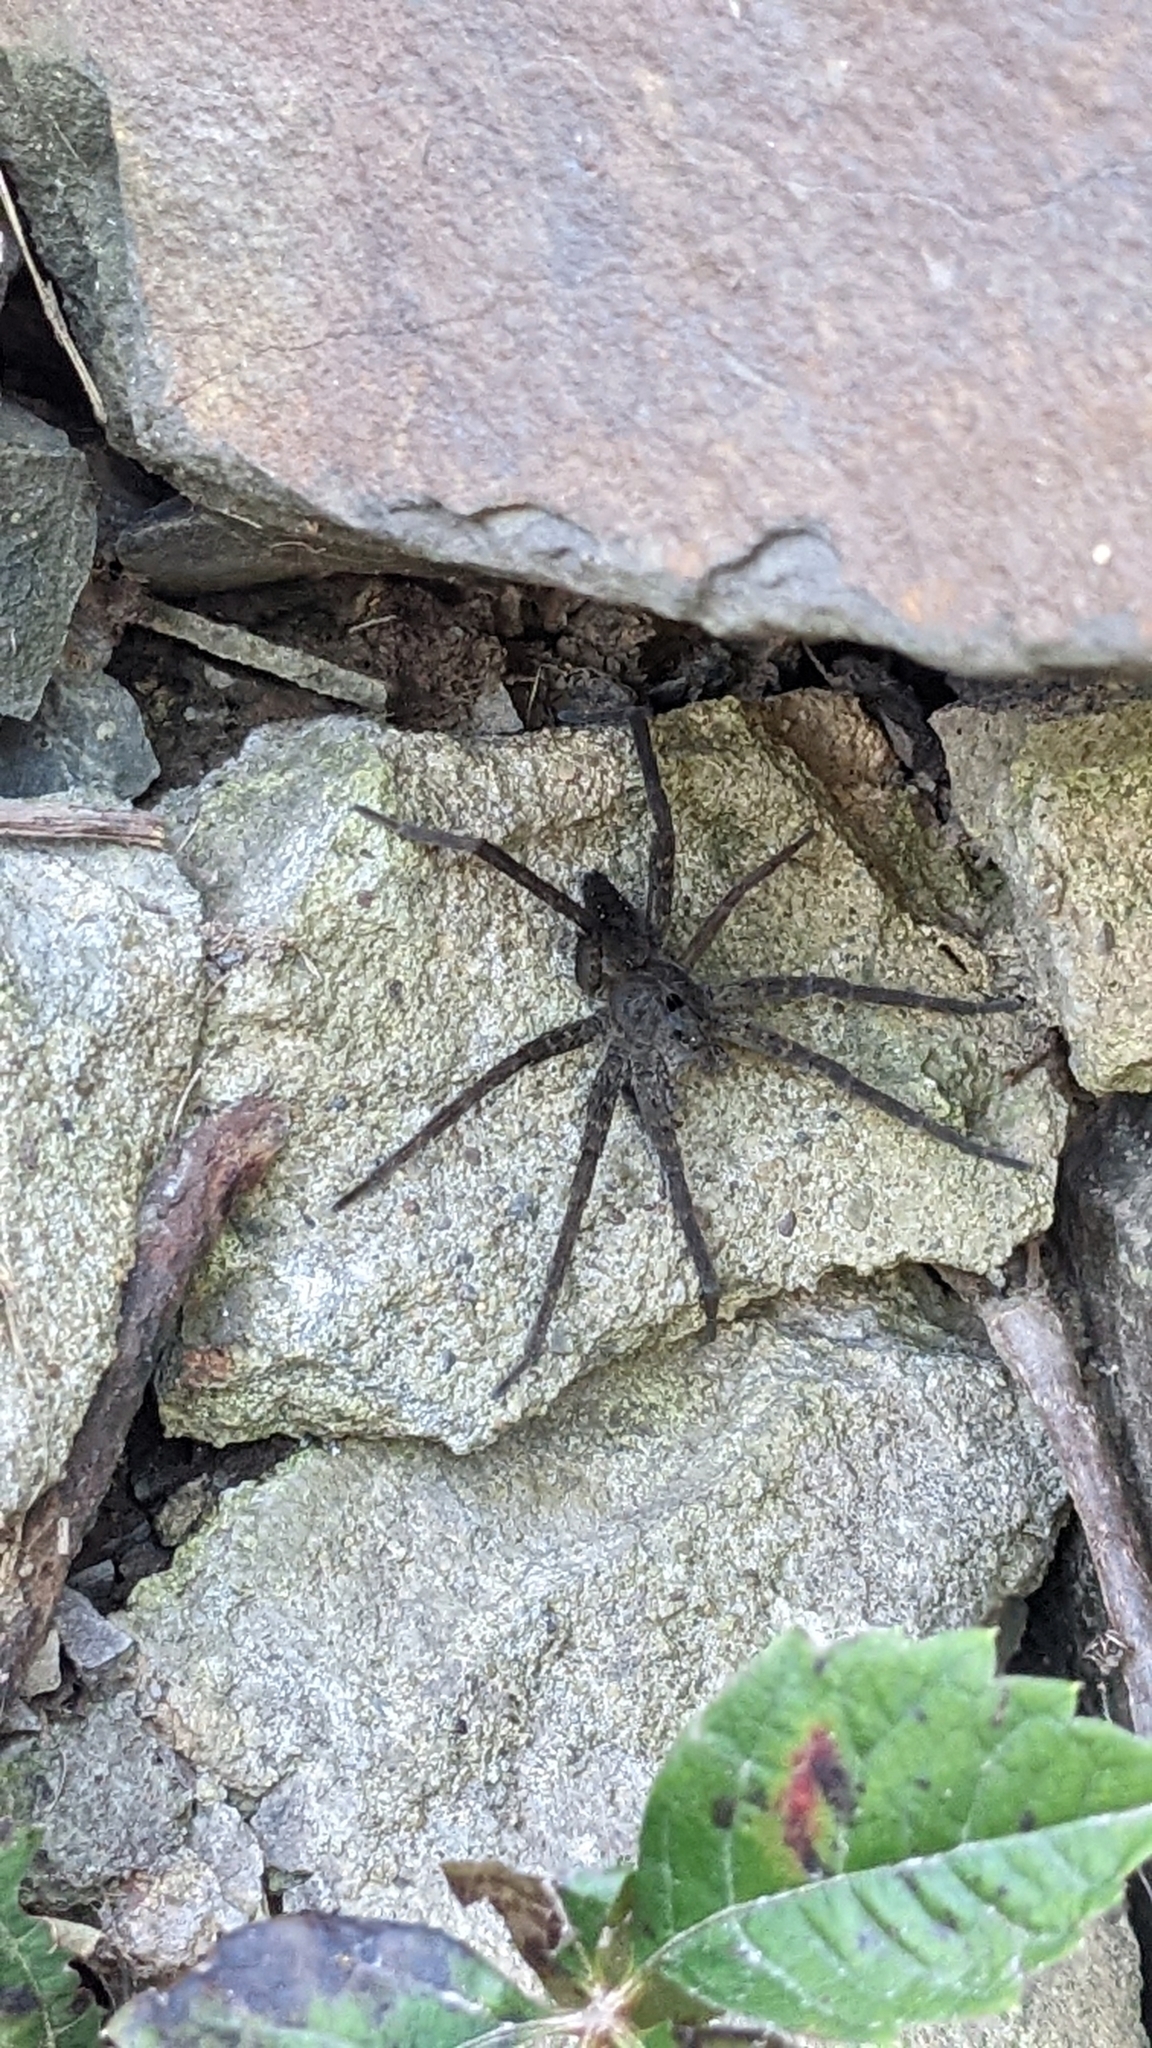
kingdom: Animalia
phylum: Arthropoda
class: Arachnida
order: Araneae
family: Pisauridae
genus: Dolomedes
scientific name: Dolomedes vittatus
